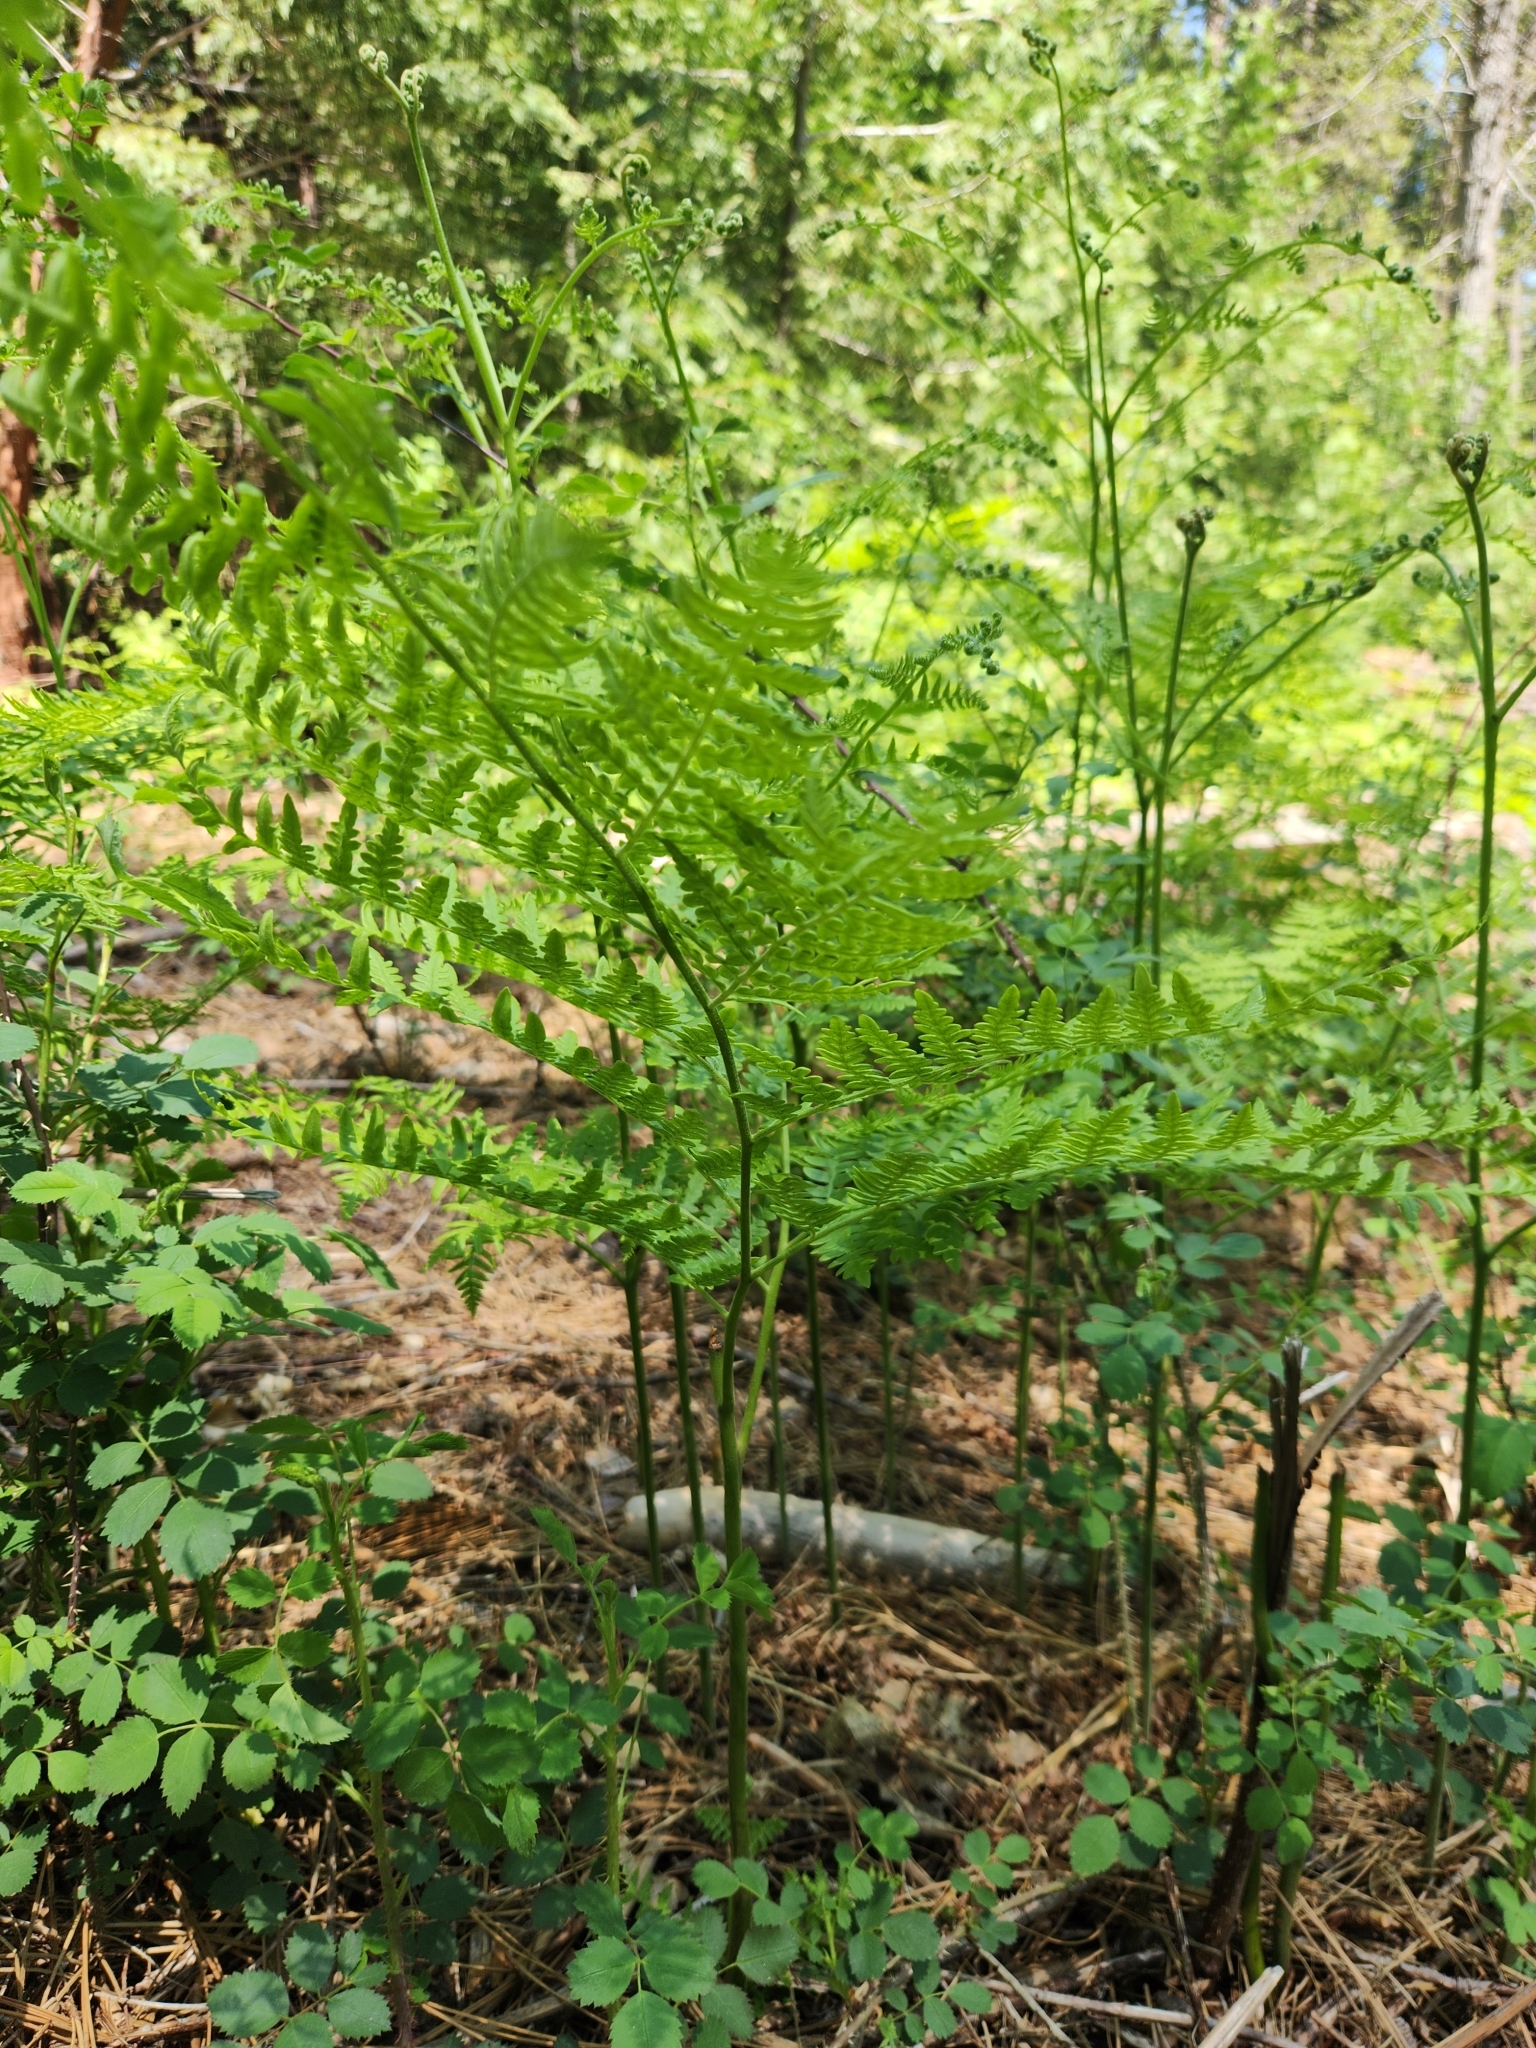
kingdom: Plantae
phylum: Tracheophyta
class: Polypodiopsida
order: Polypodiales
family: Dennstaedtiaceae
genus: Pteridium
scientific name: Pteridium aquilinum
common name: Bracken
